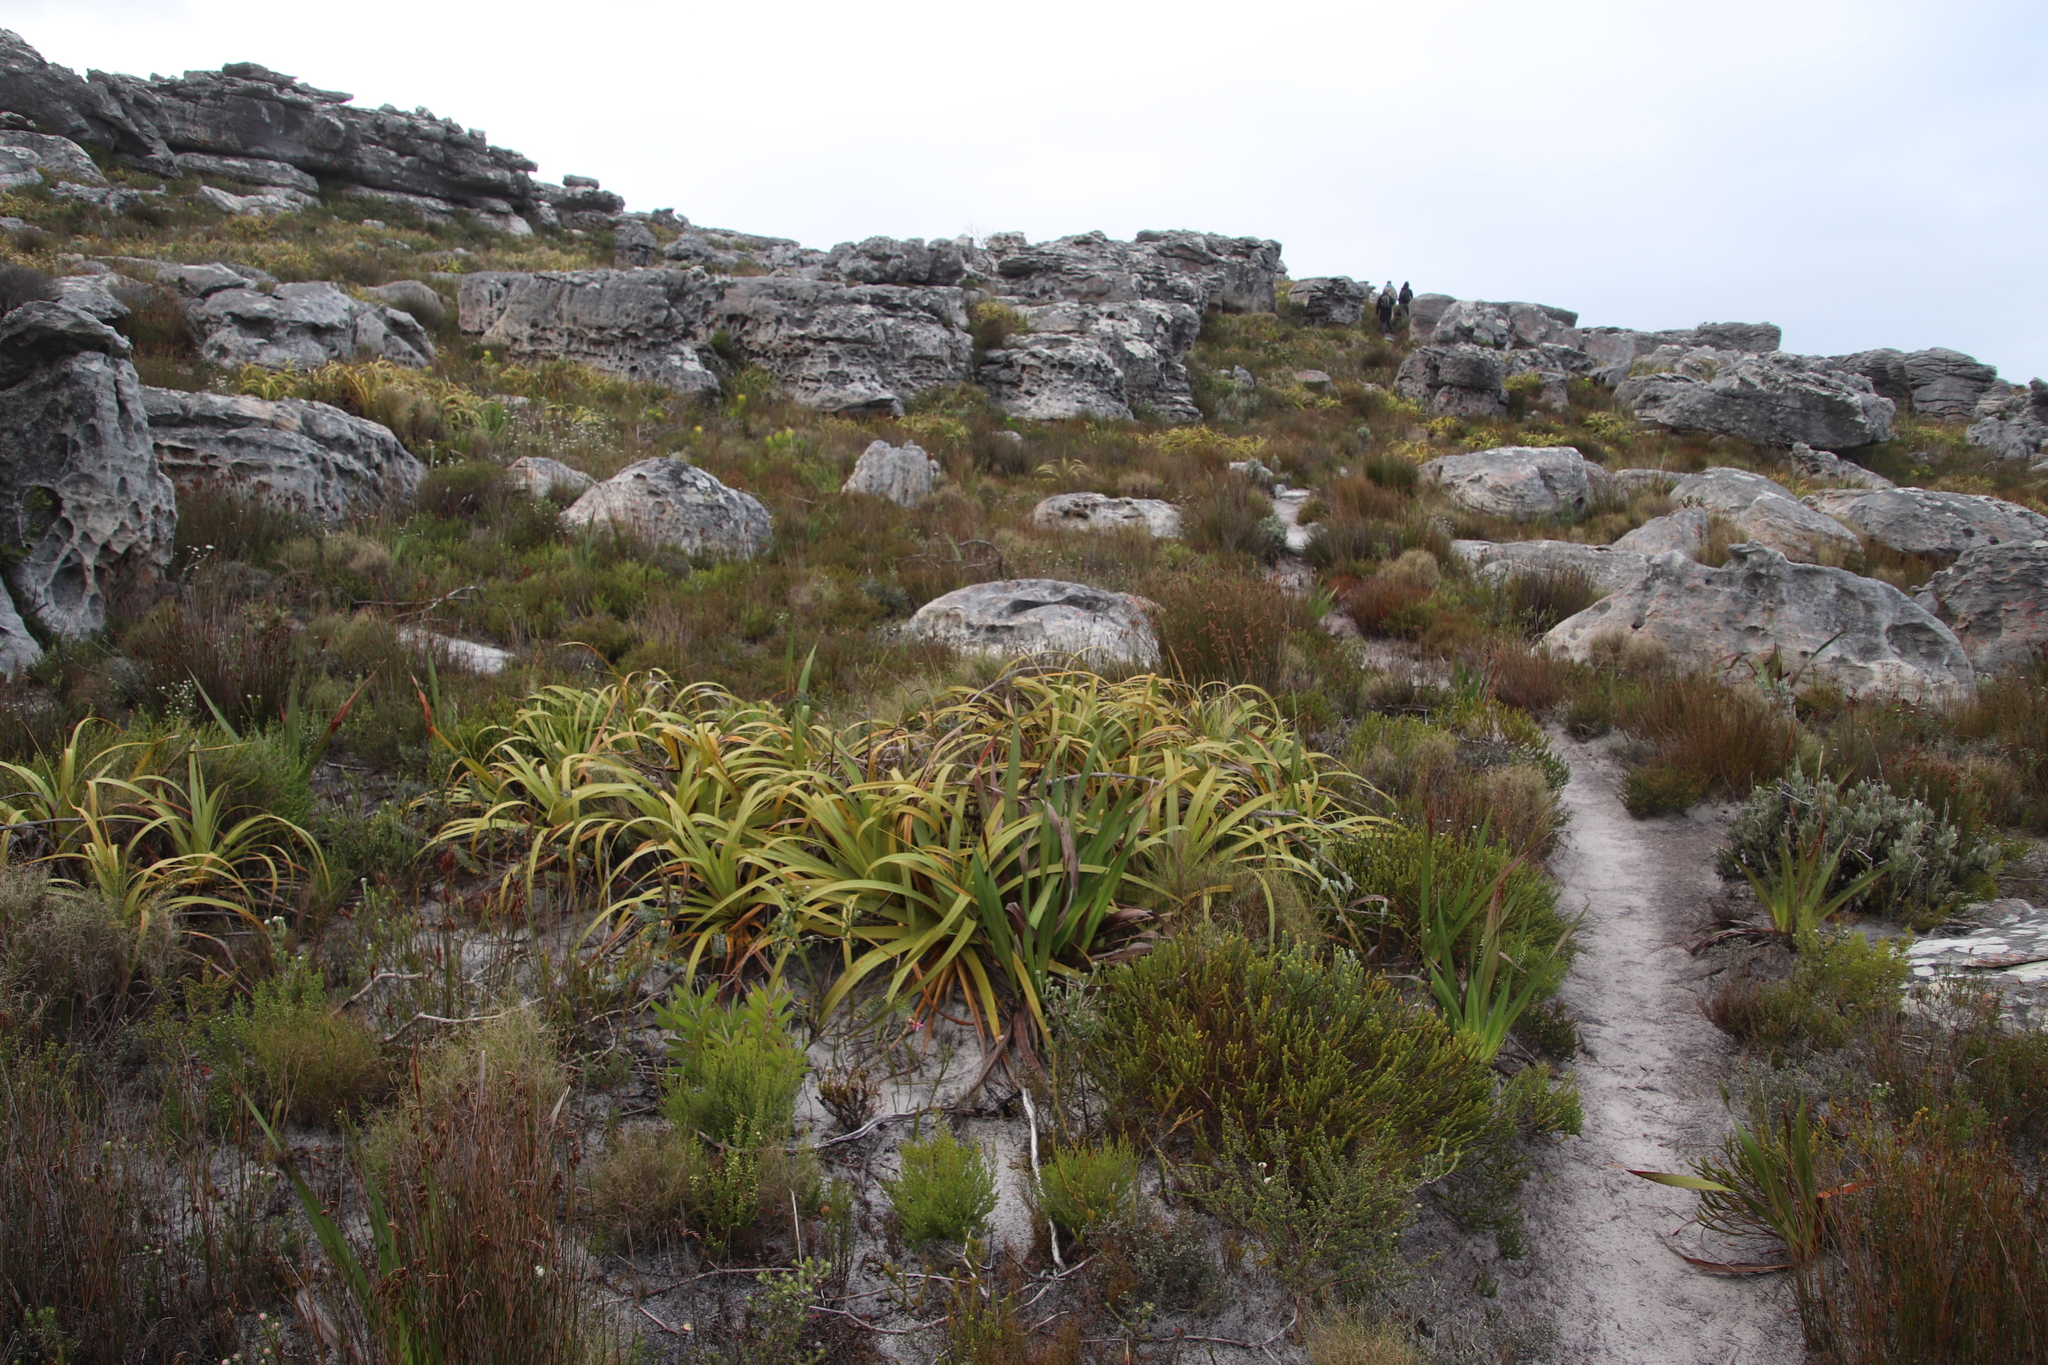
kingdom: Plantae
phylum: Tracheophyta
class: Liliopsida
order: Poales
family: Cyperaceae
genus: Tetraria
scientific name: Tetraria thermalis
